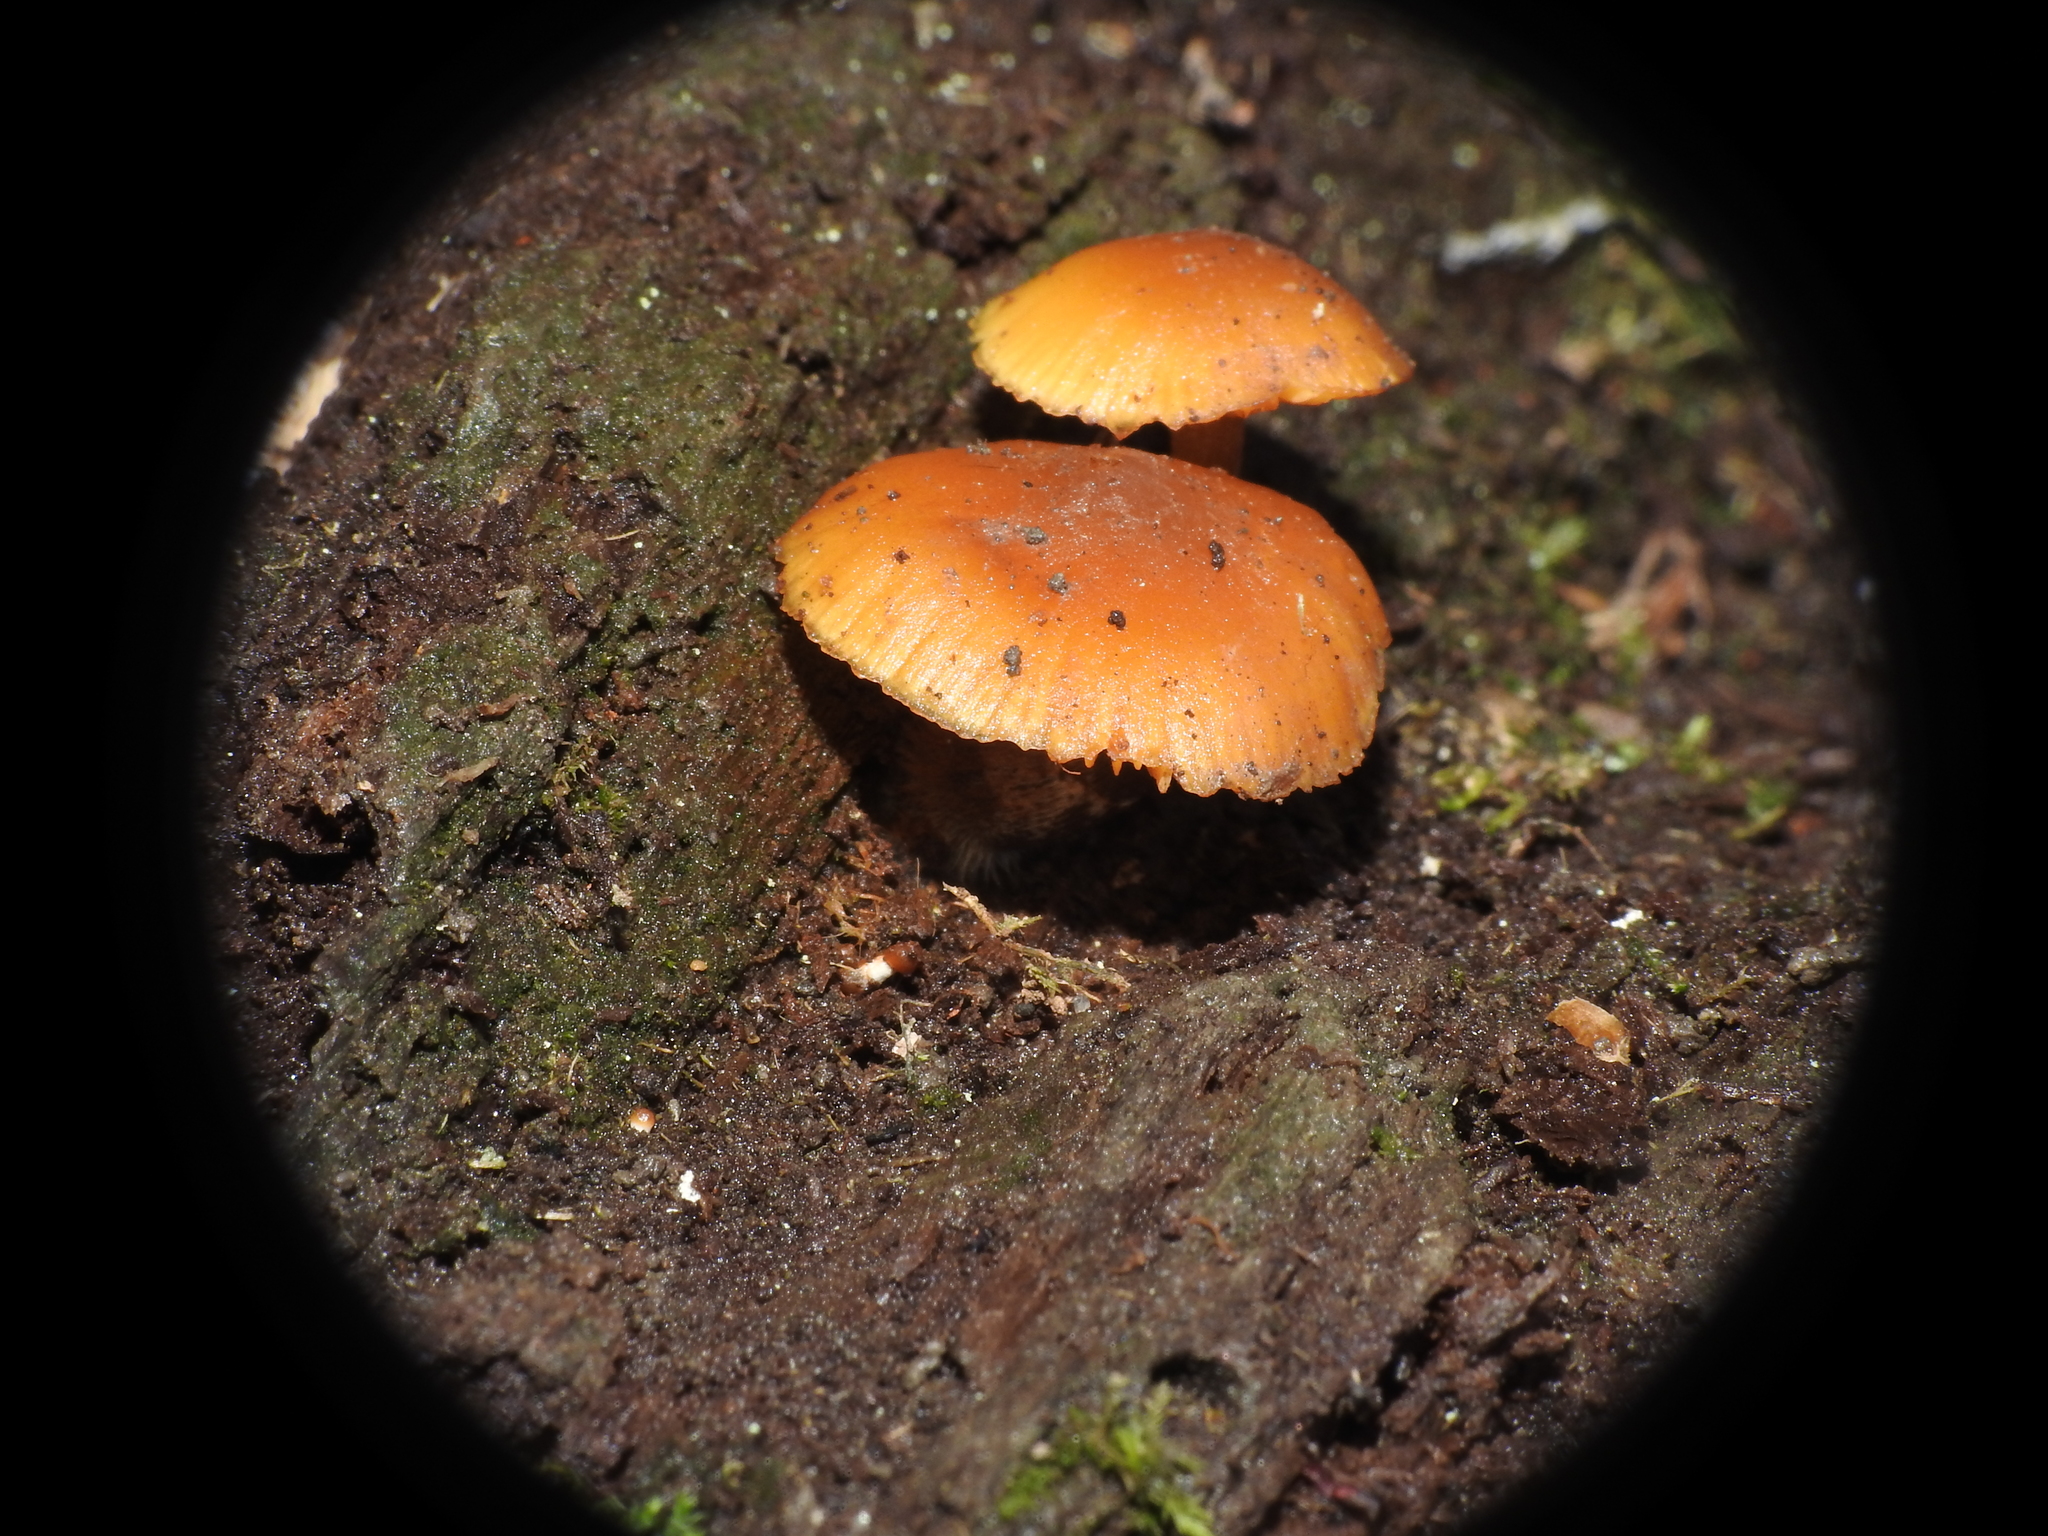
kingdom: Fungi
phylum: Basidiomycota
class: Agaricomycetes
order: Agaricales
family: Hymenogastraceae
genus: Galerina
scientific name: Galerina marginata
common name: Funeral bell
